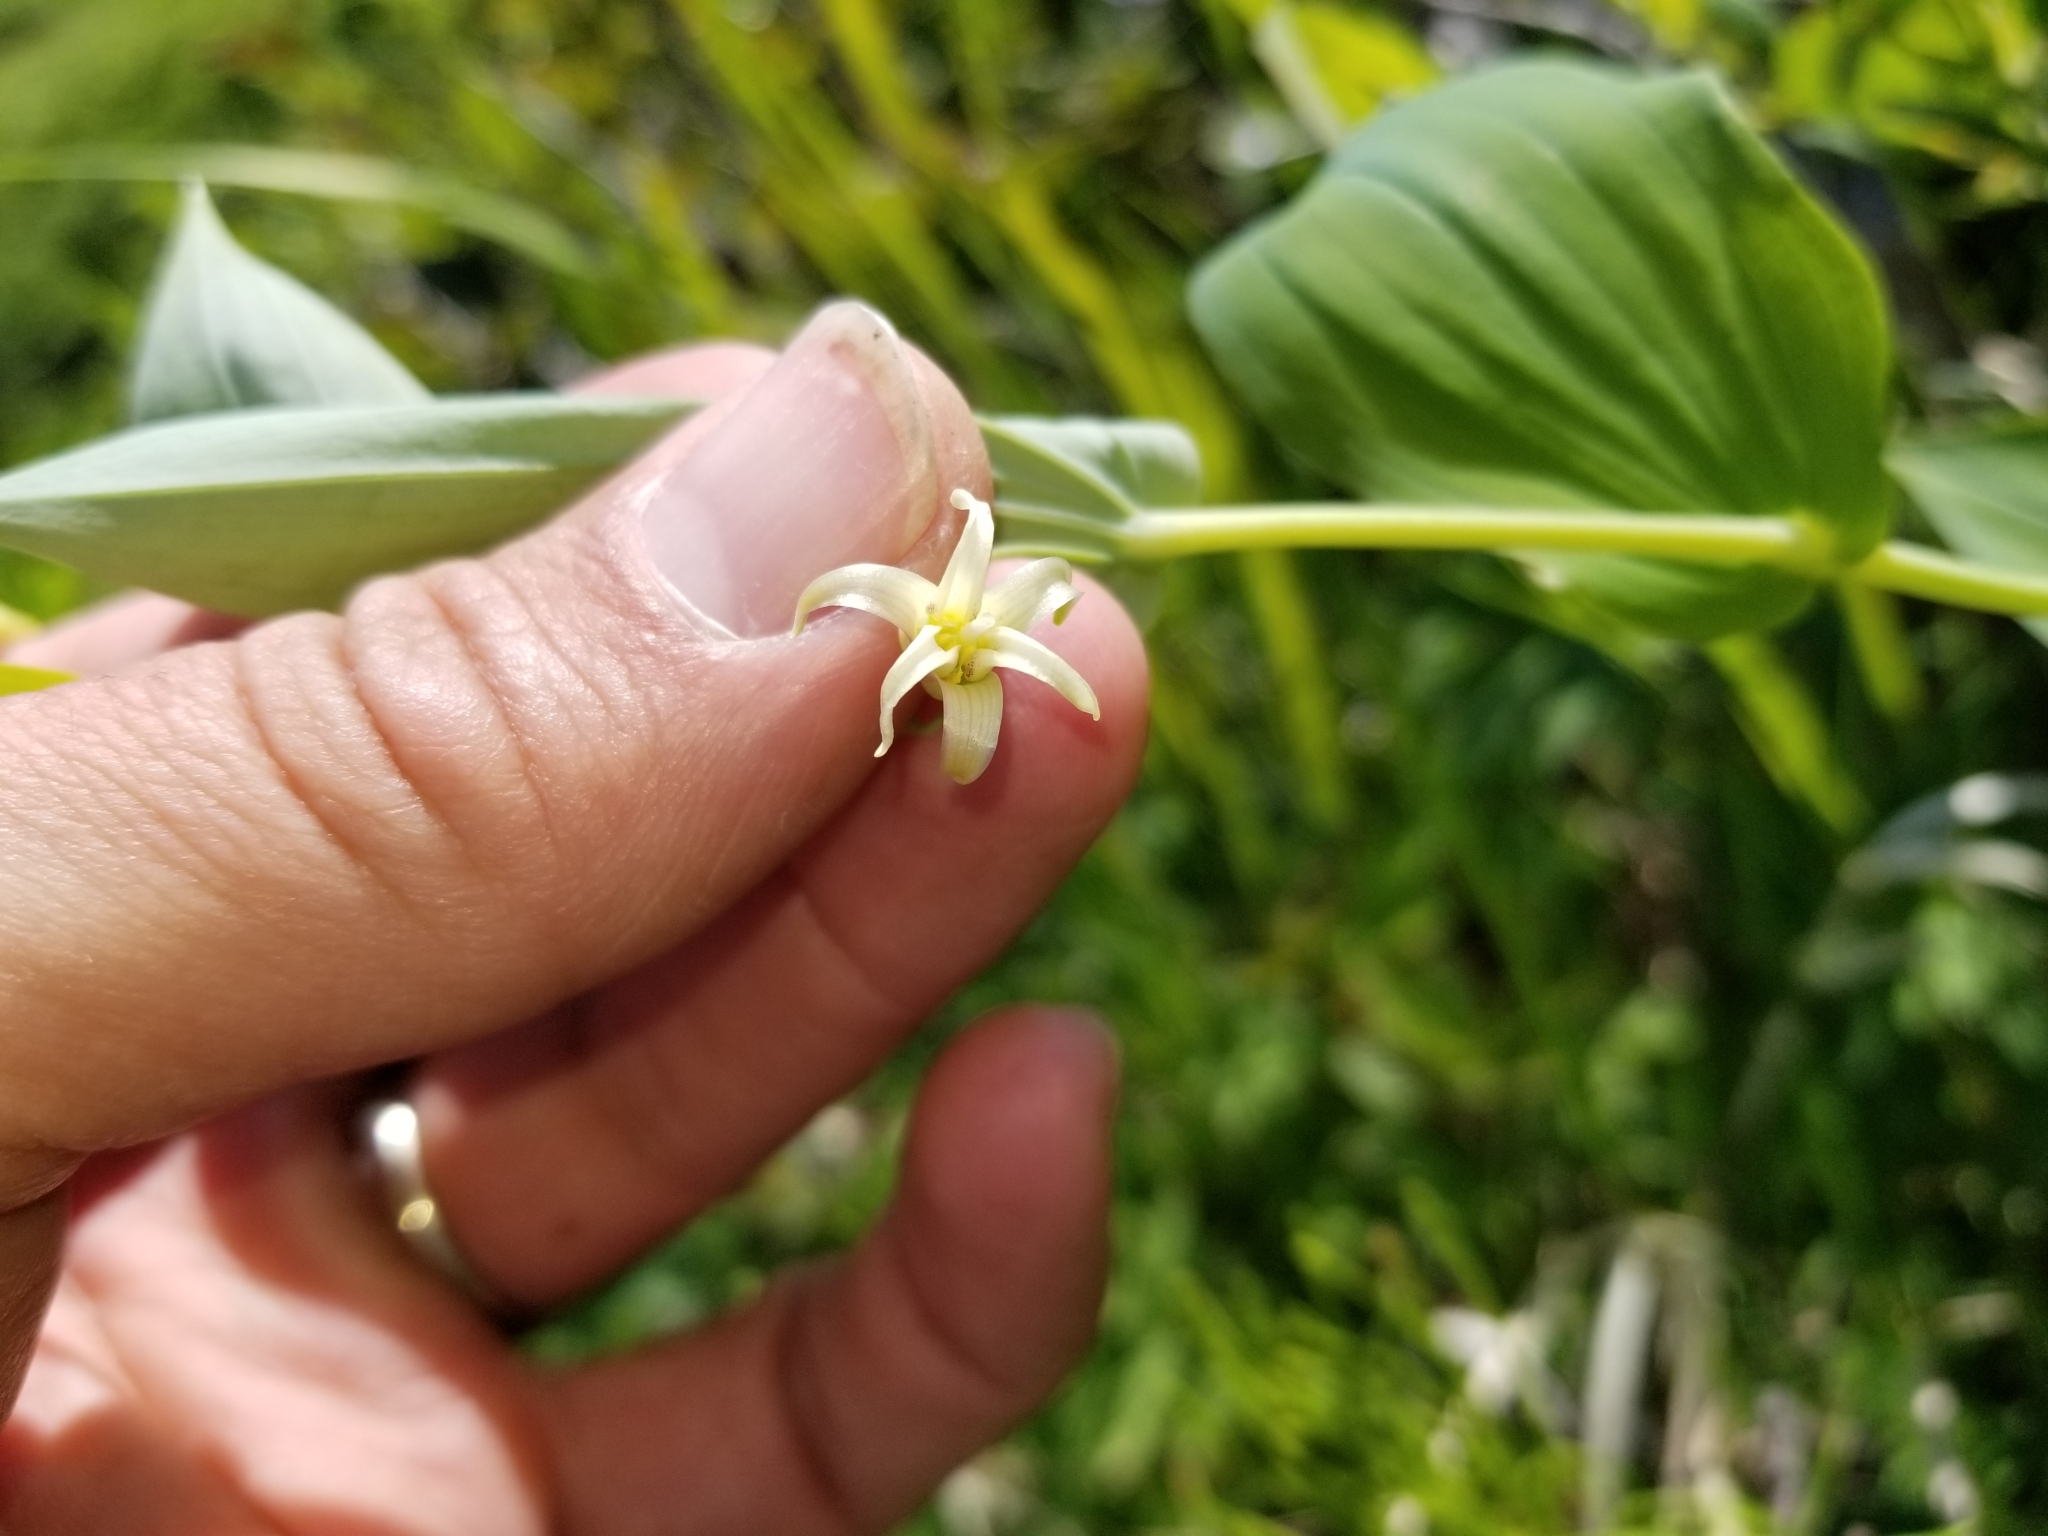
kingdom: Plantae
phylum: Tracheophyta
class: Liliopsida
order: Liliales
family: Liliaceae
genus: Streptopus
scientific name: Streptopus amplexifolius
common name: Clasp twisted stalk
